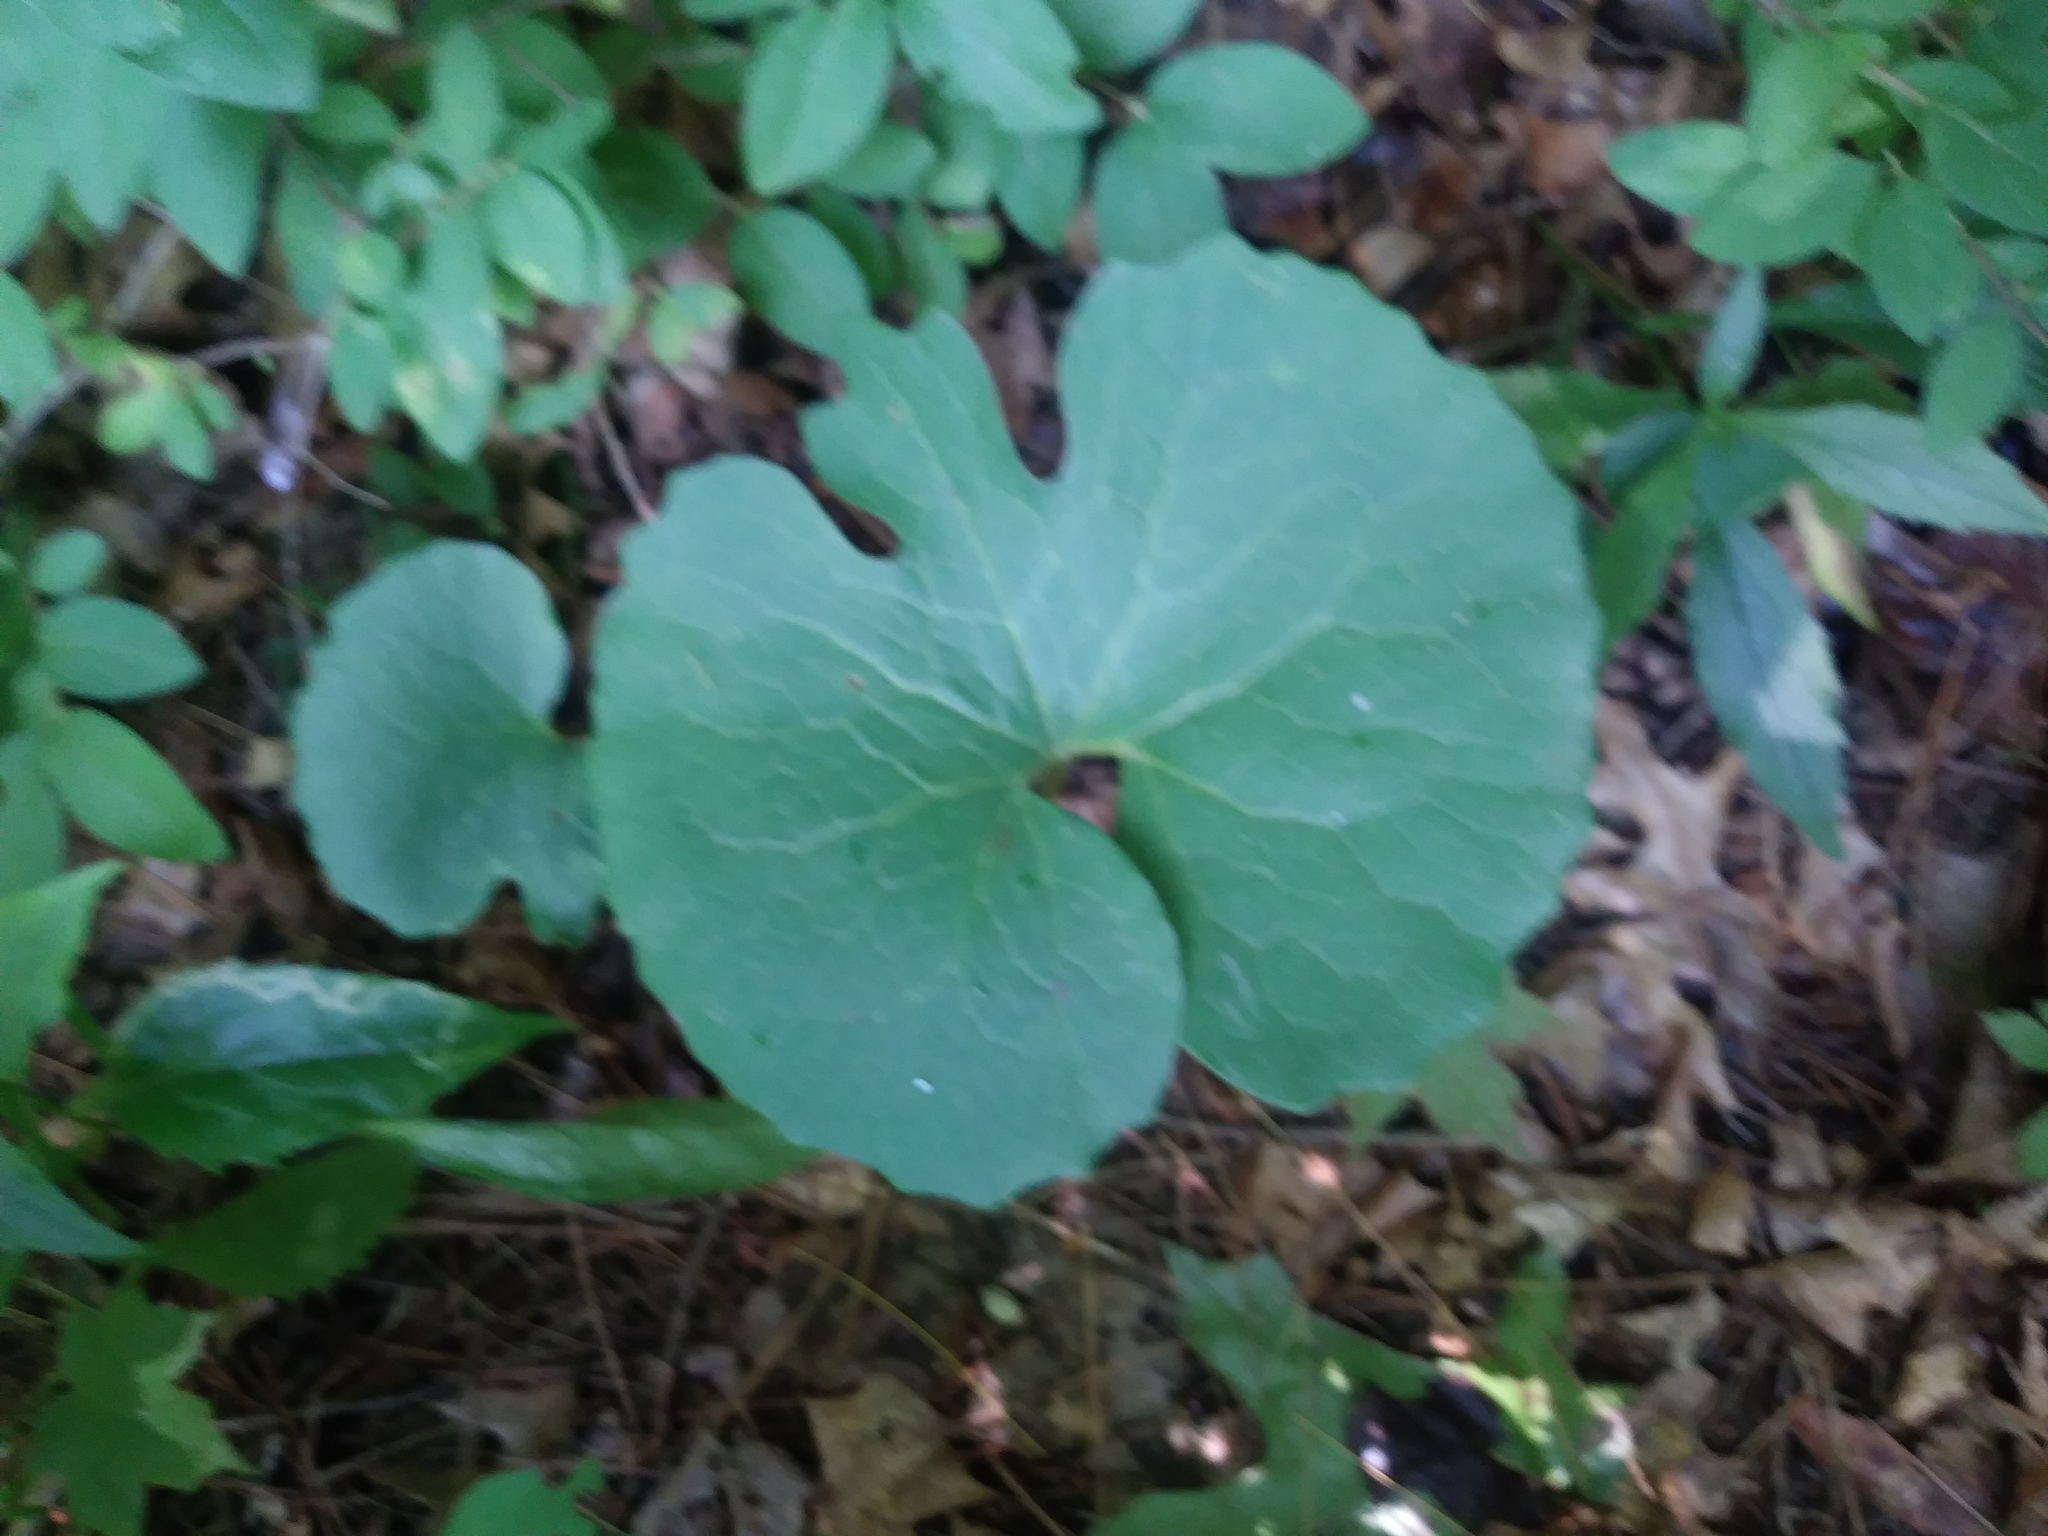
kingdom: Plantae
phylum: Tracheophyta
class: Magnoliopsida
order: Ranunculales
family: Papaveraceae
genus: Sanguinaria
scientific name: Sanguinaria canadensis
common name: Bloodroot
